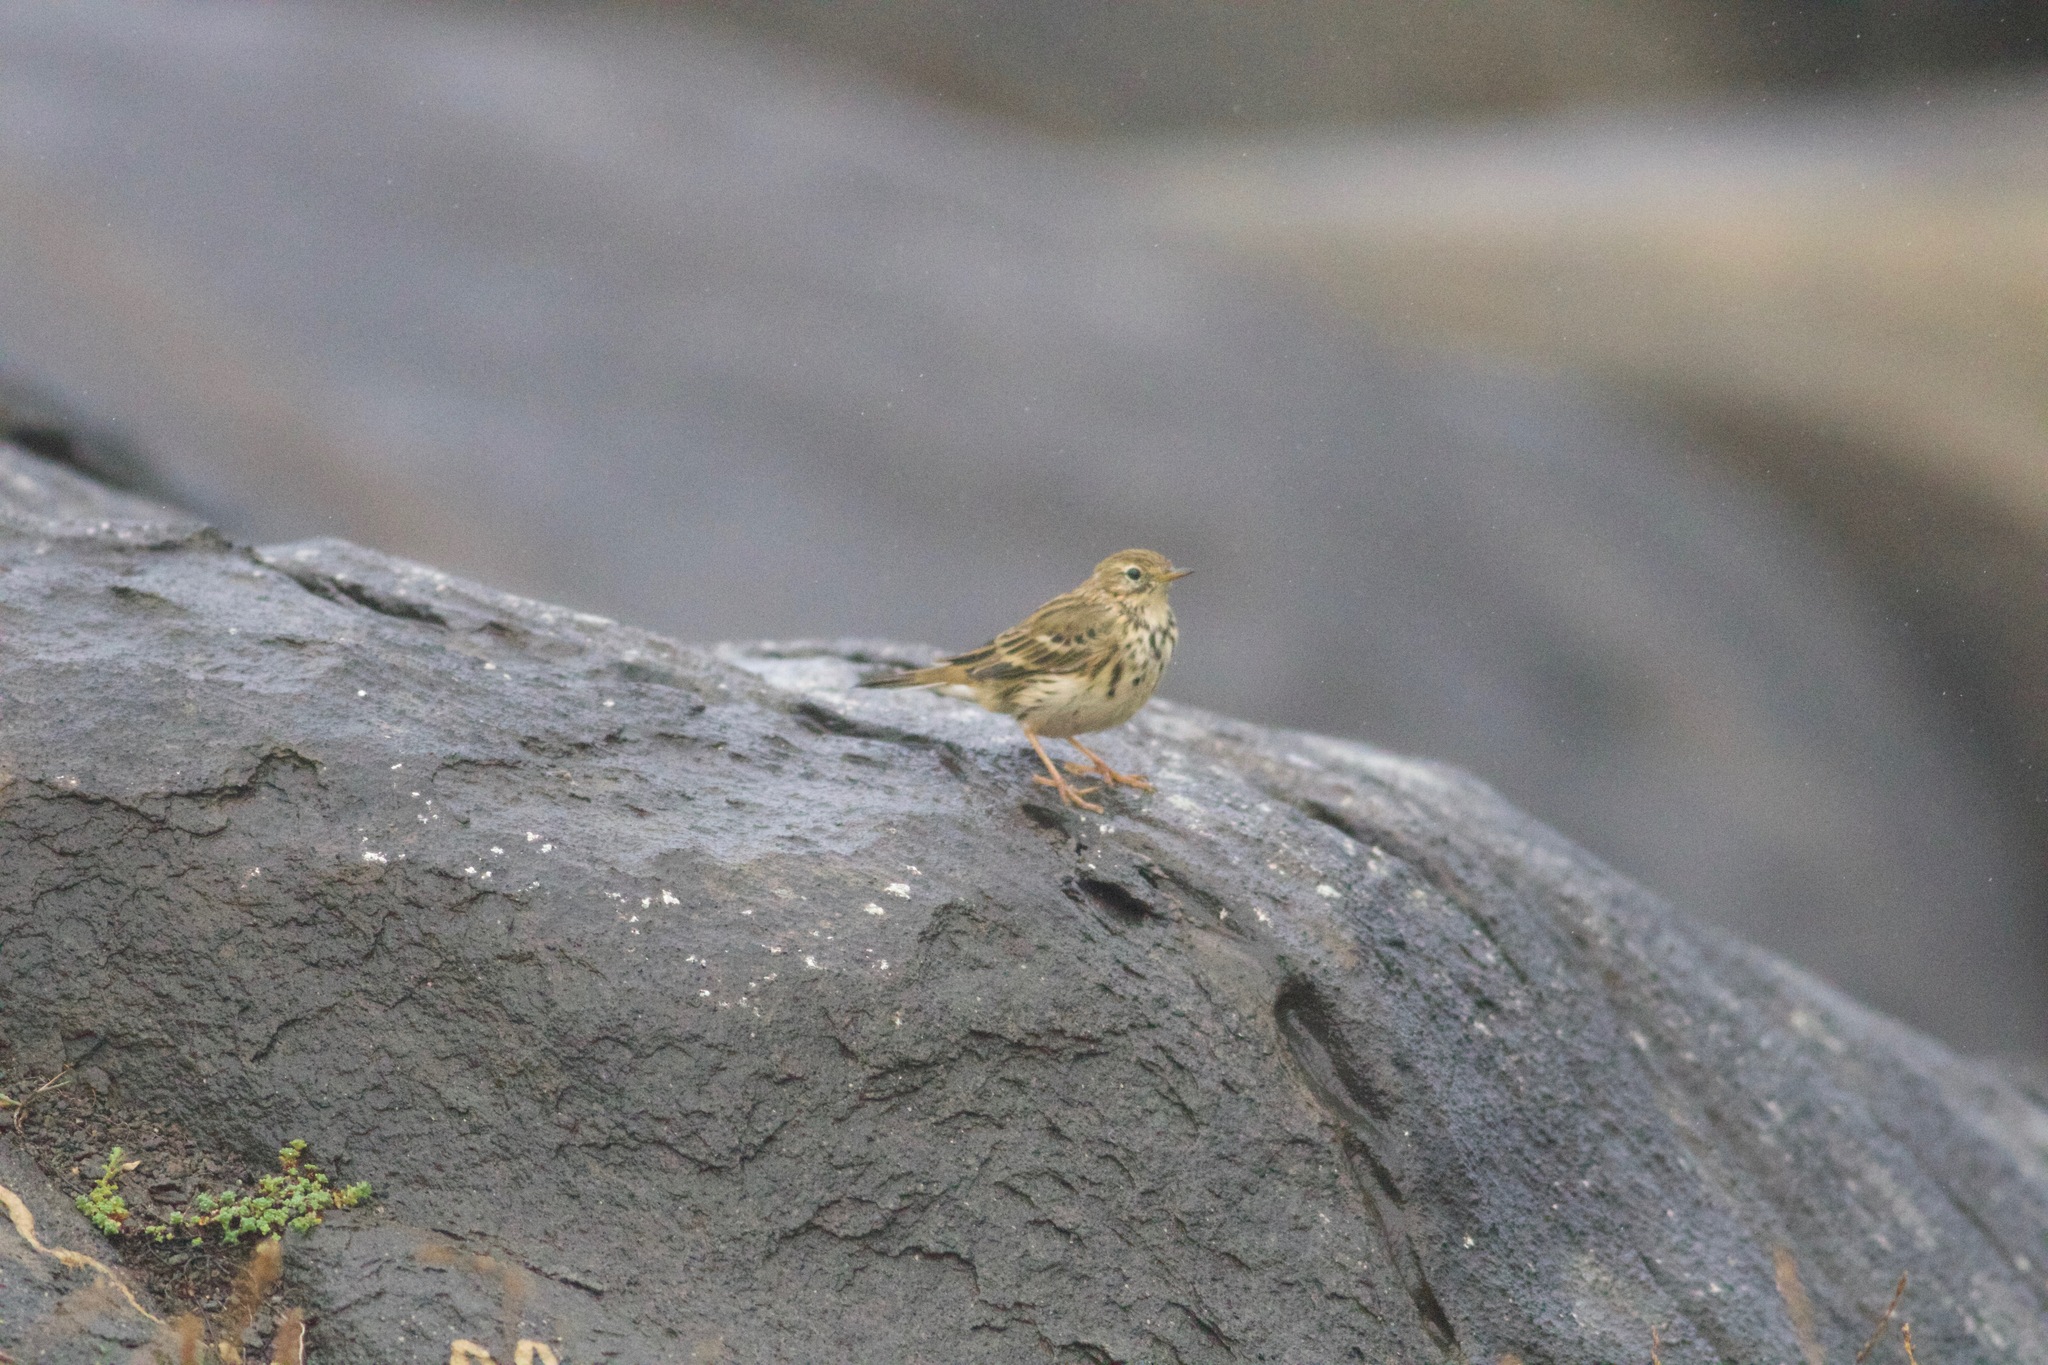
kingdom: Animalia
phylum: Chordata
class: Aves
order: Passeriformes
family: Motacillidae
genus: Anthus
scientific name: Anthus pratensis
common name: Meadow pipit
